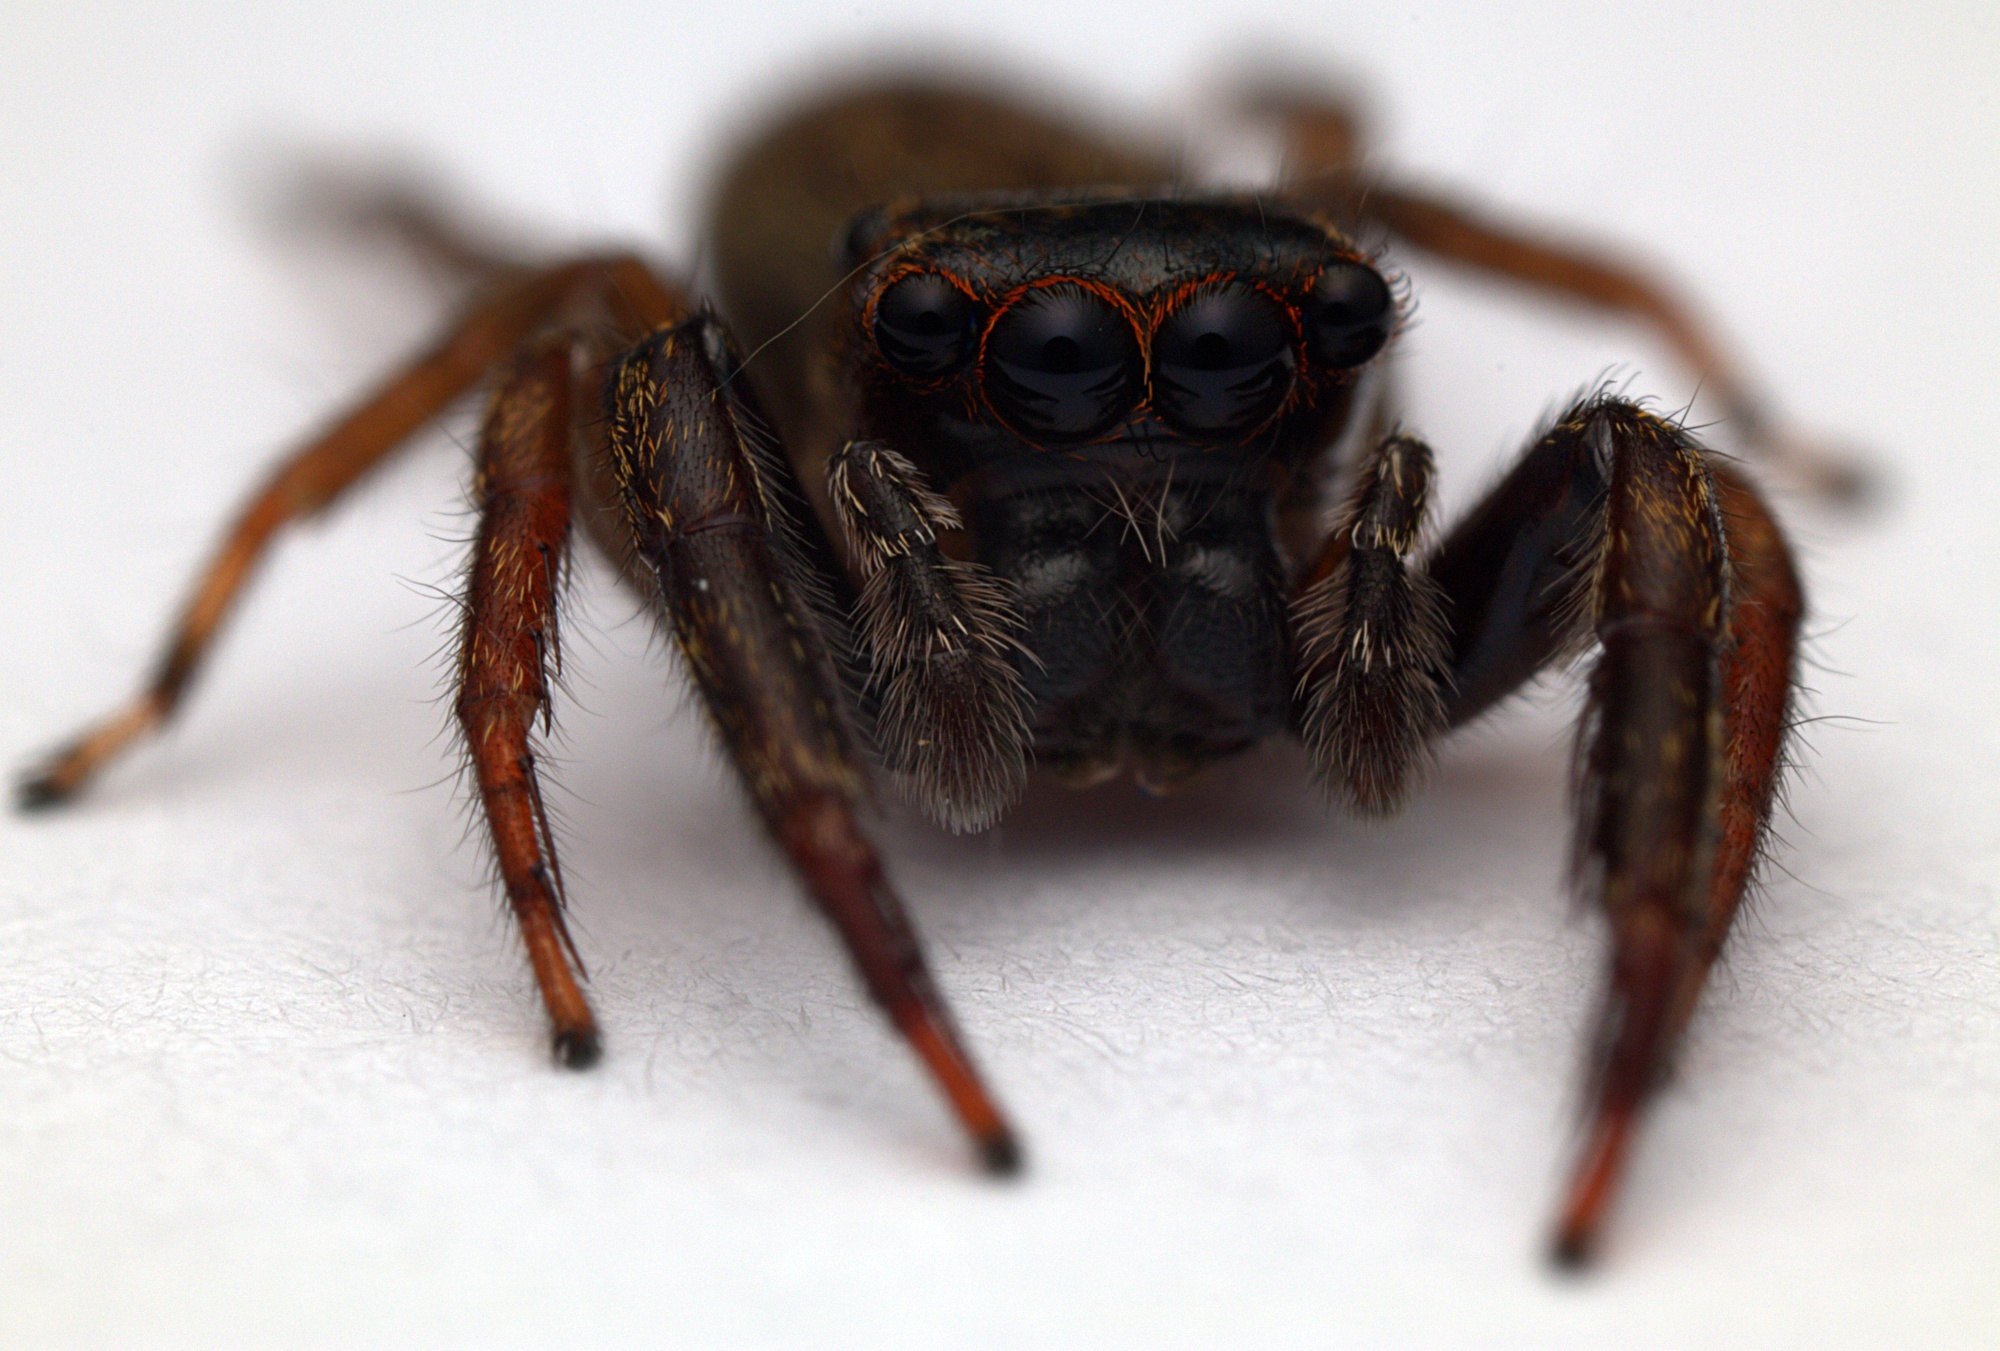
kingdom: Animalia
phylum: Arthropoda
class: Arachnida
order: Araneae
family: Salticidae
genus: Trite
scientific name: Trite auricoma
